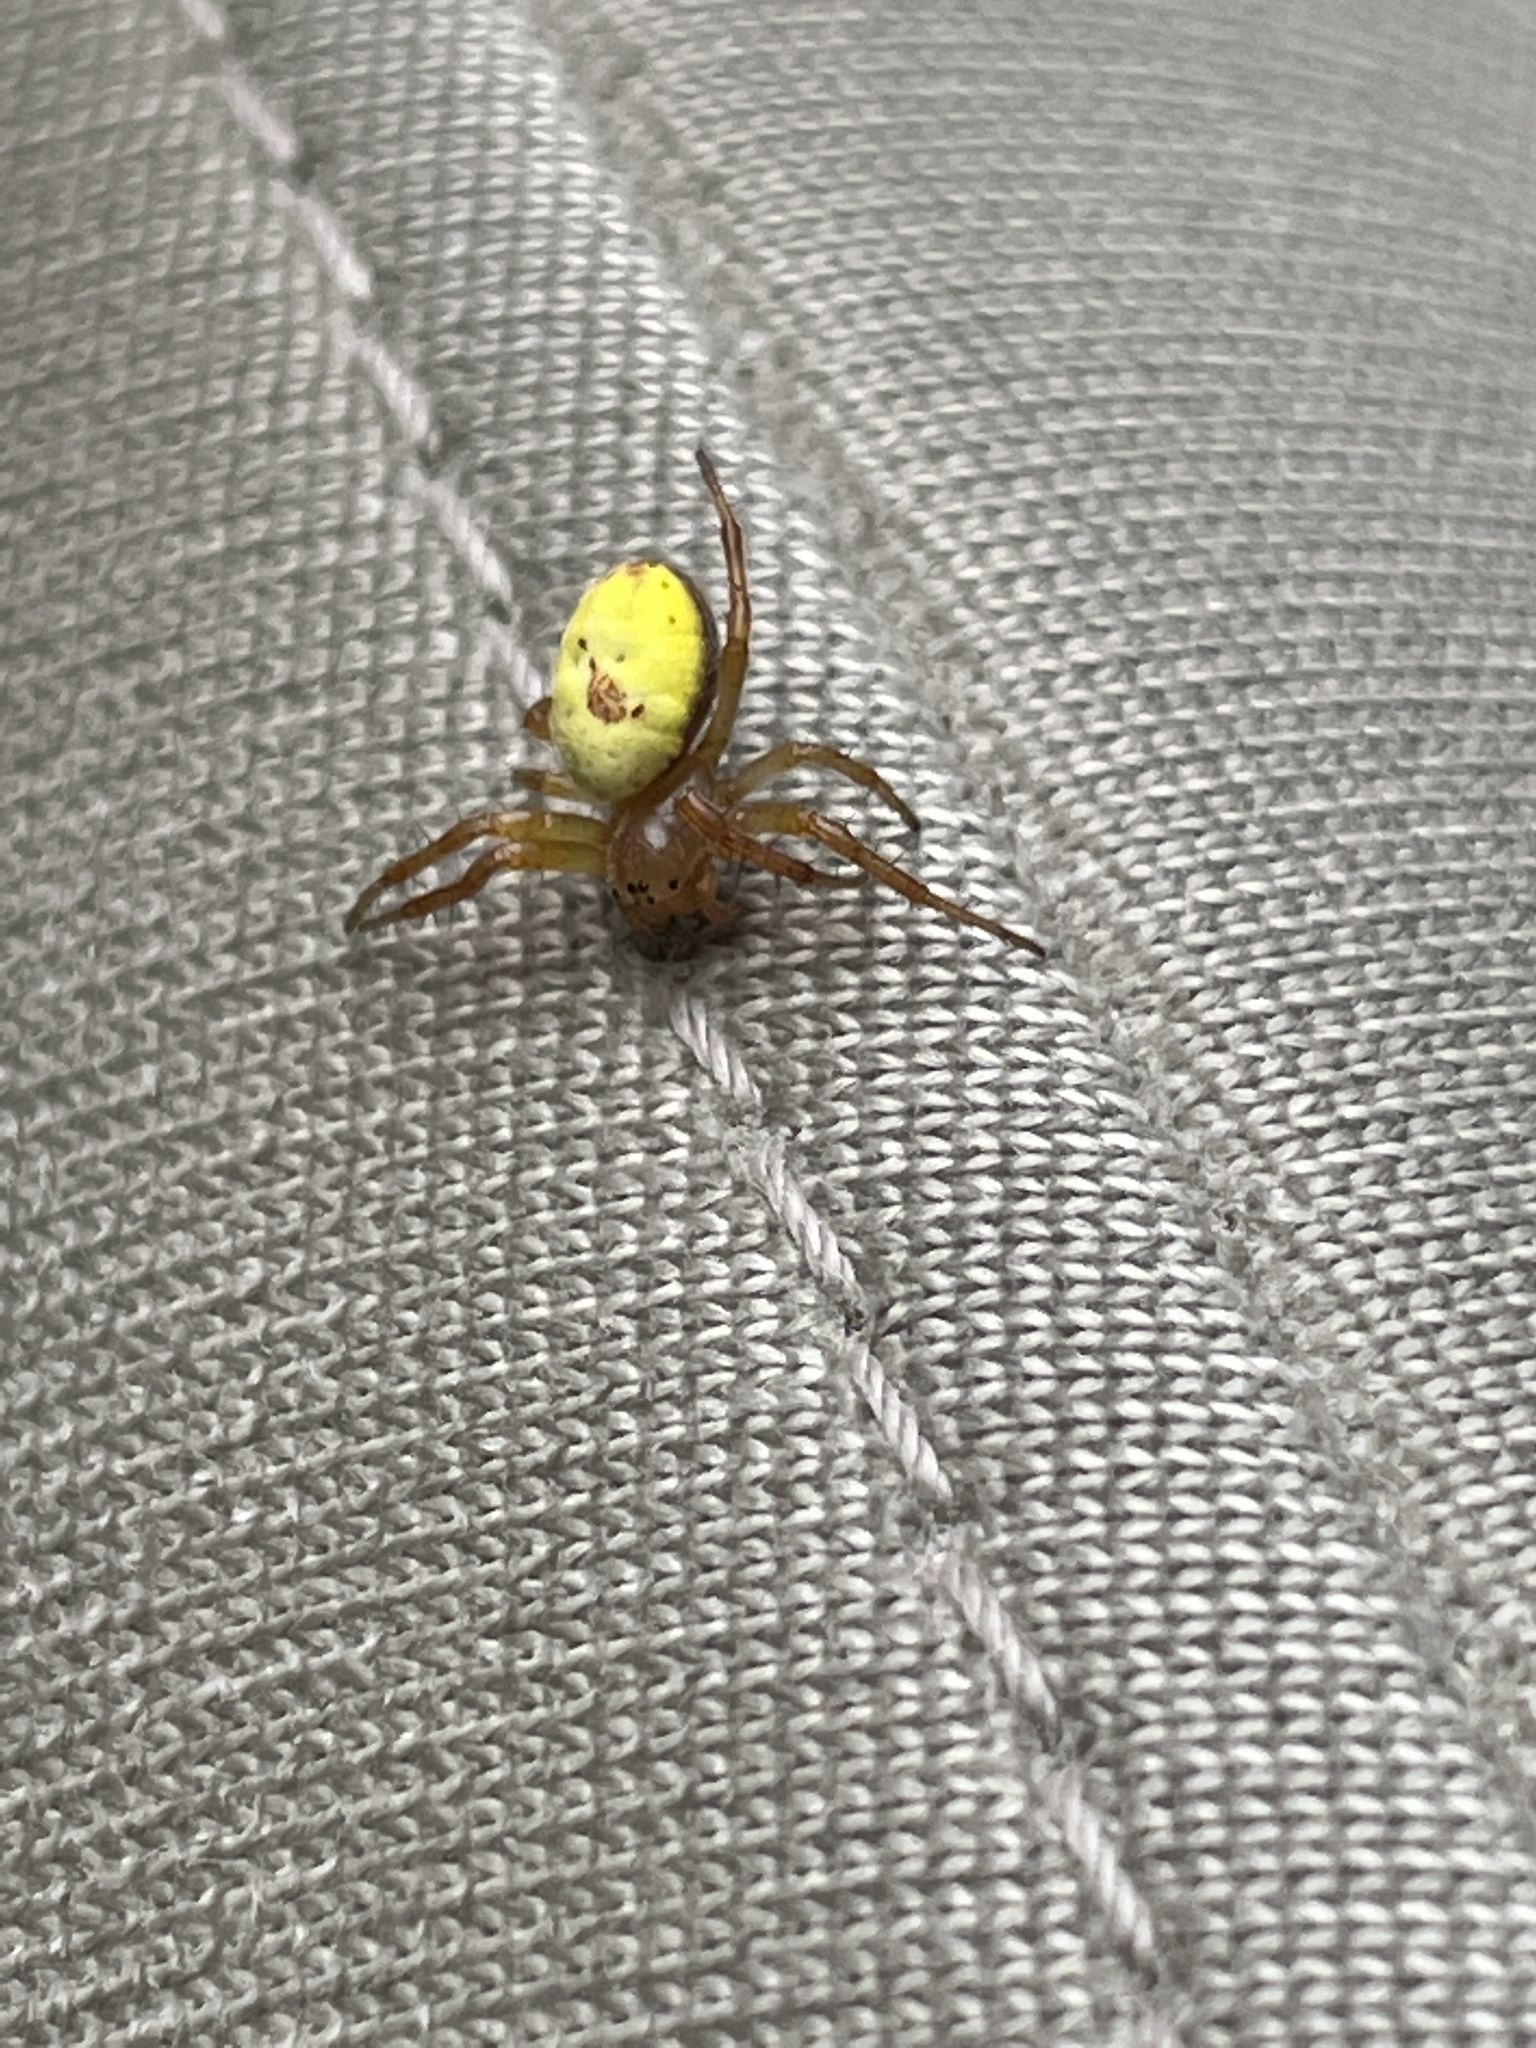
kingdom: Animalia
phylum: Arthropoda
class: Arachnida
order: Araneae
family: Araneidae
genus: Araniella
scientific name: Araniella displicata
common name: Sixspotted orb weaver
